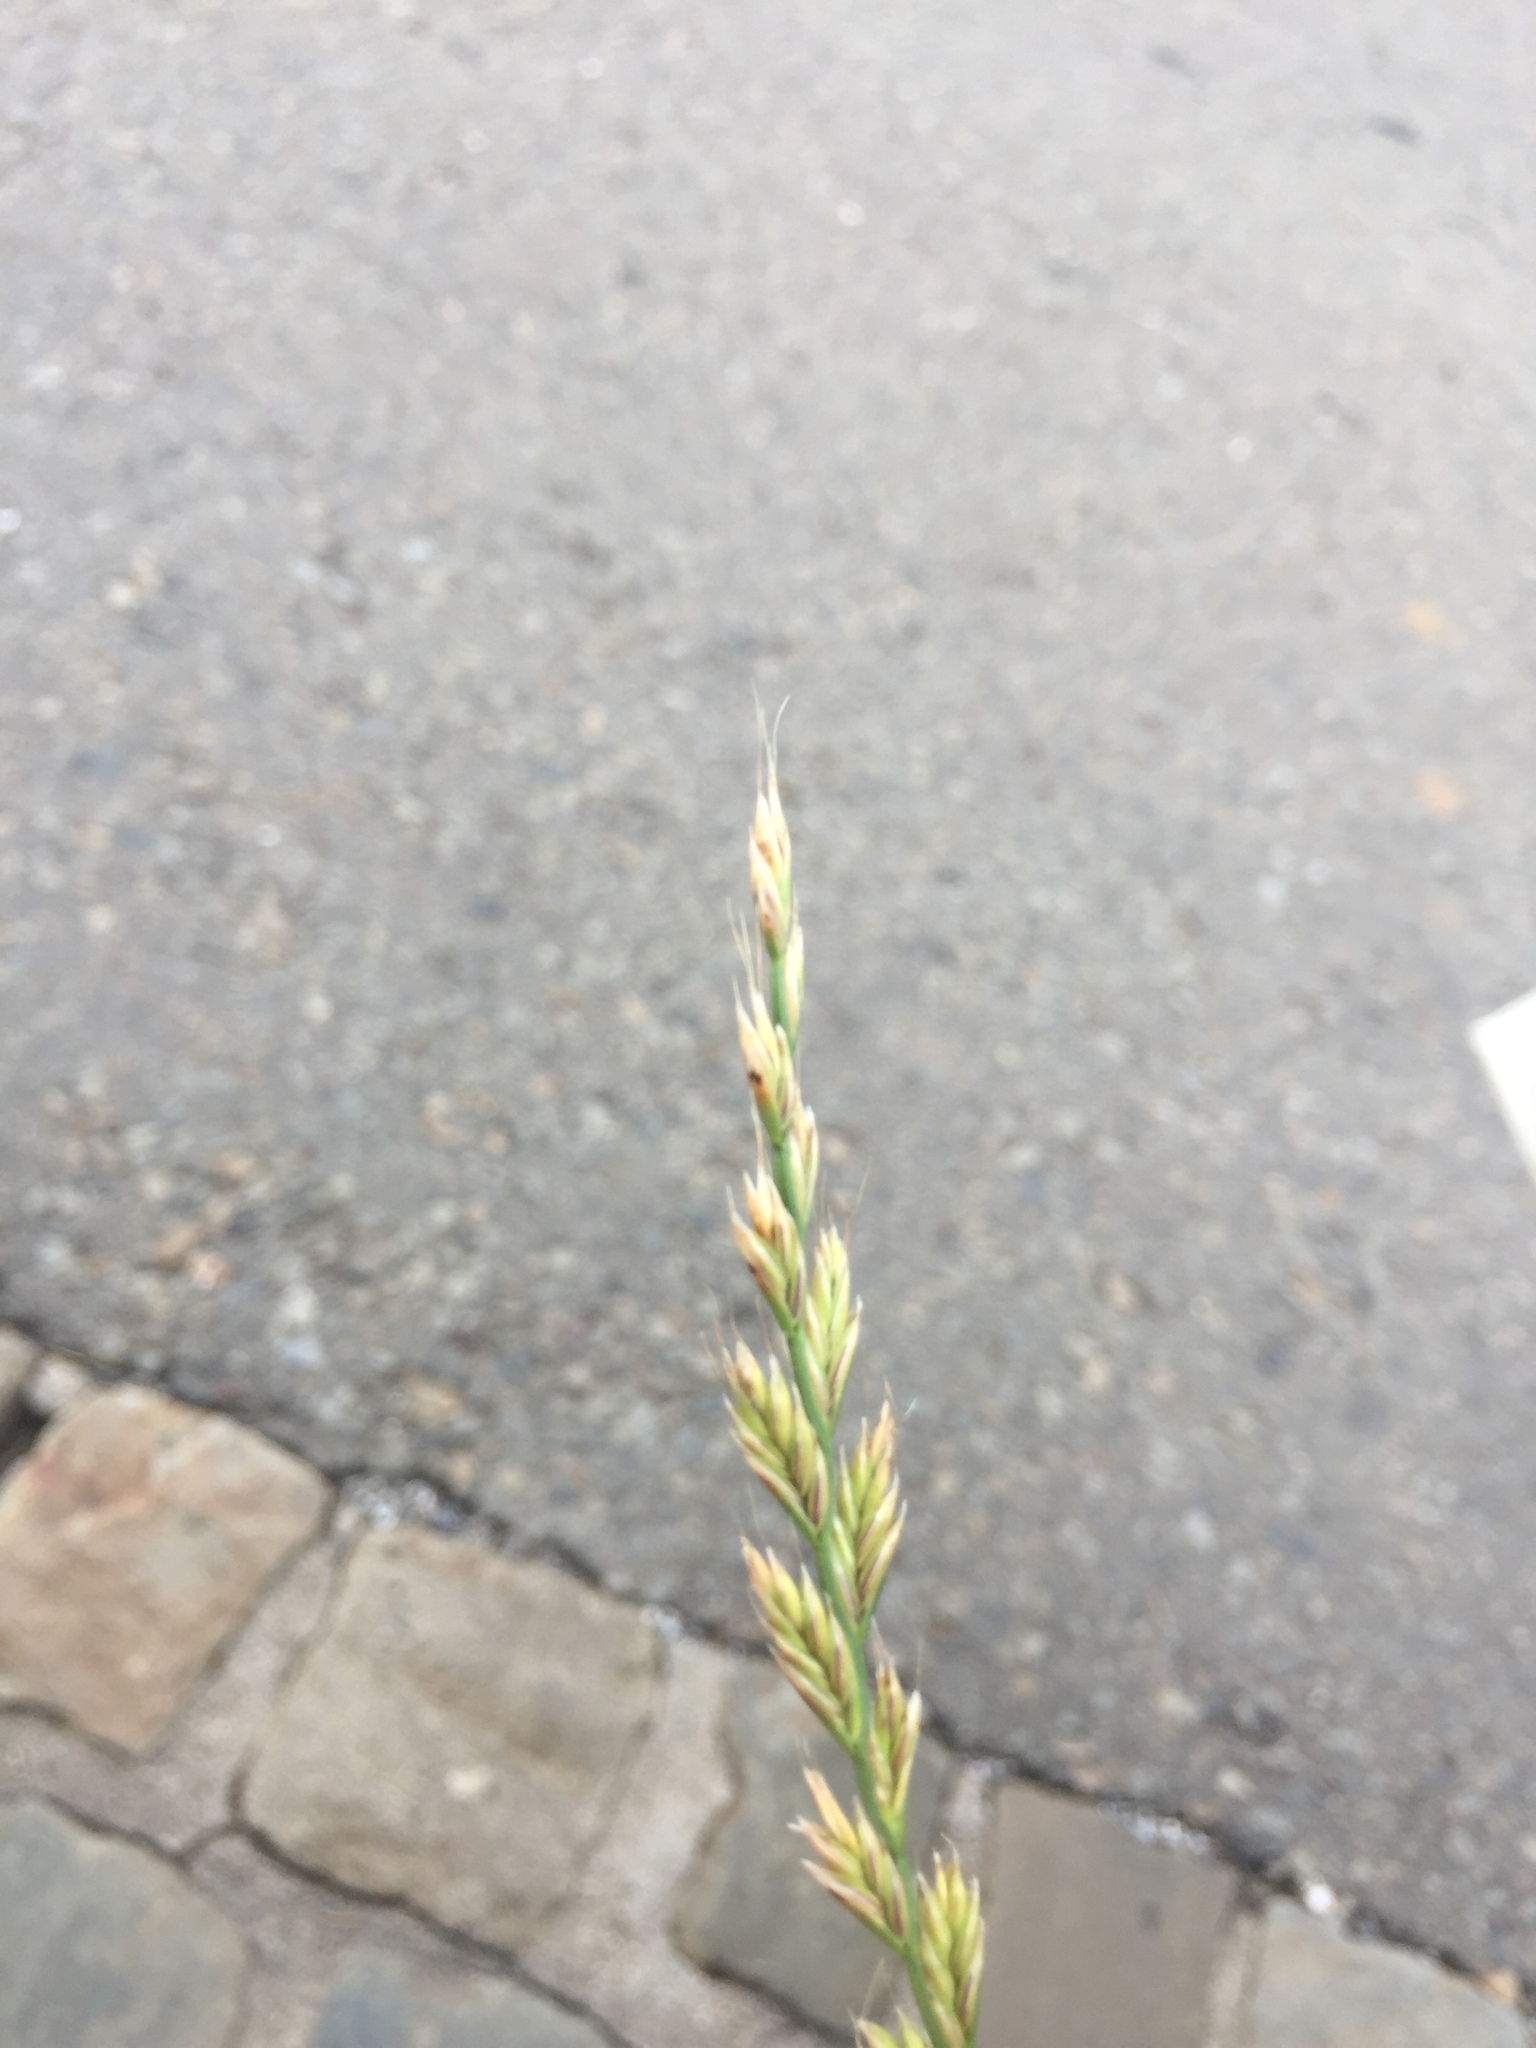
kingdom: Plantae
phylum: Tracheophyta
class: Liliopsida
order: Poales
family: Poaceae
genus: Lolium
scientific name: Lolium perenne
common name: Perennial ryegrass
